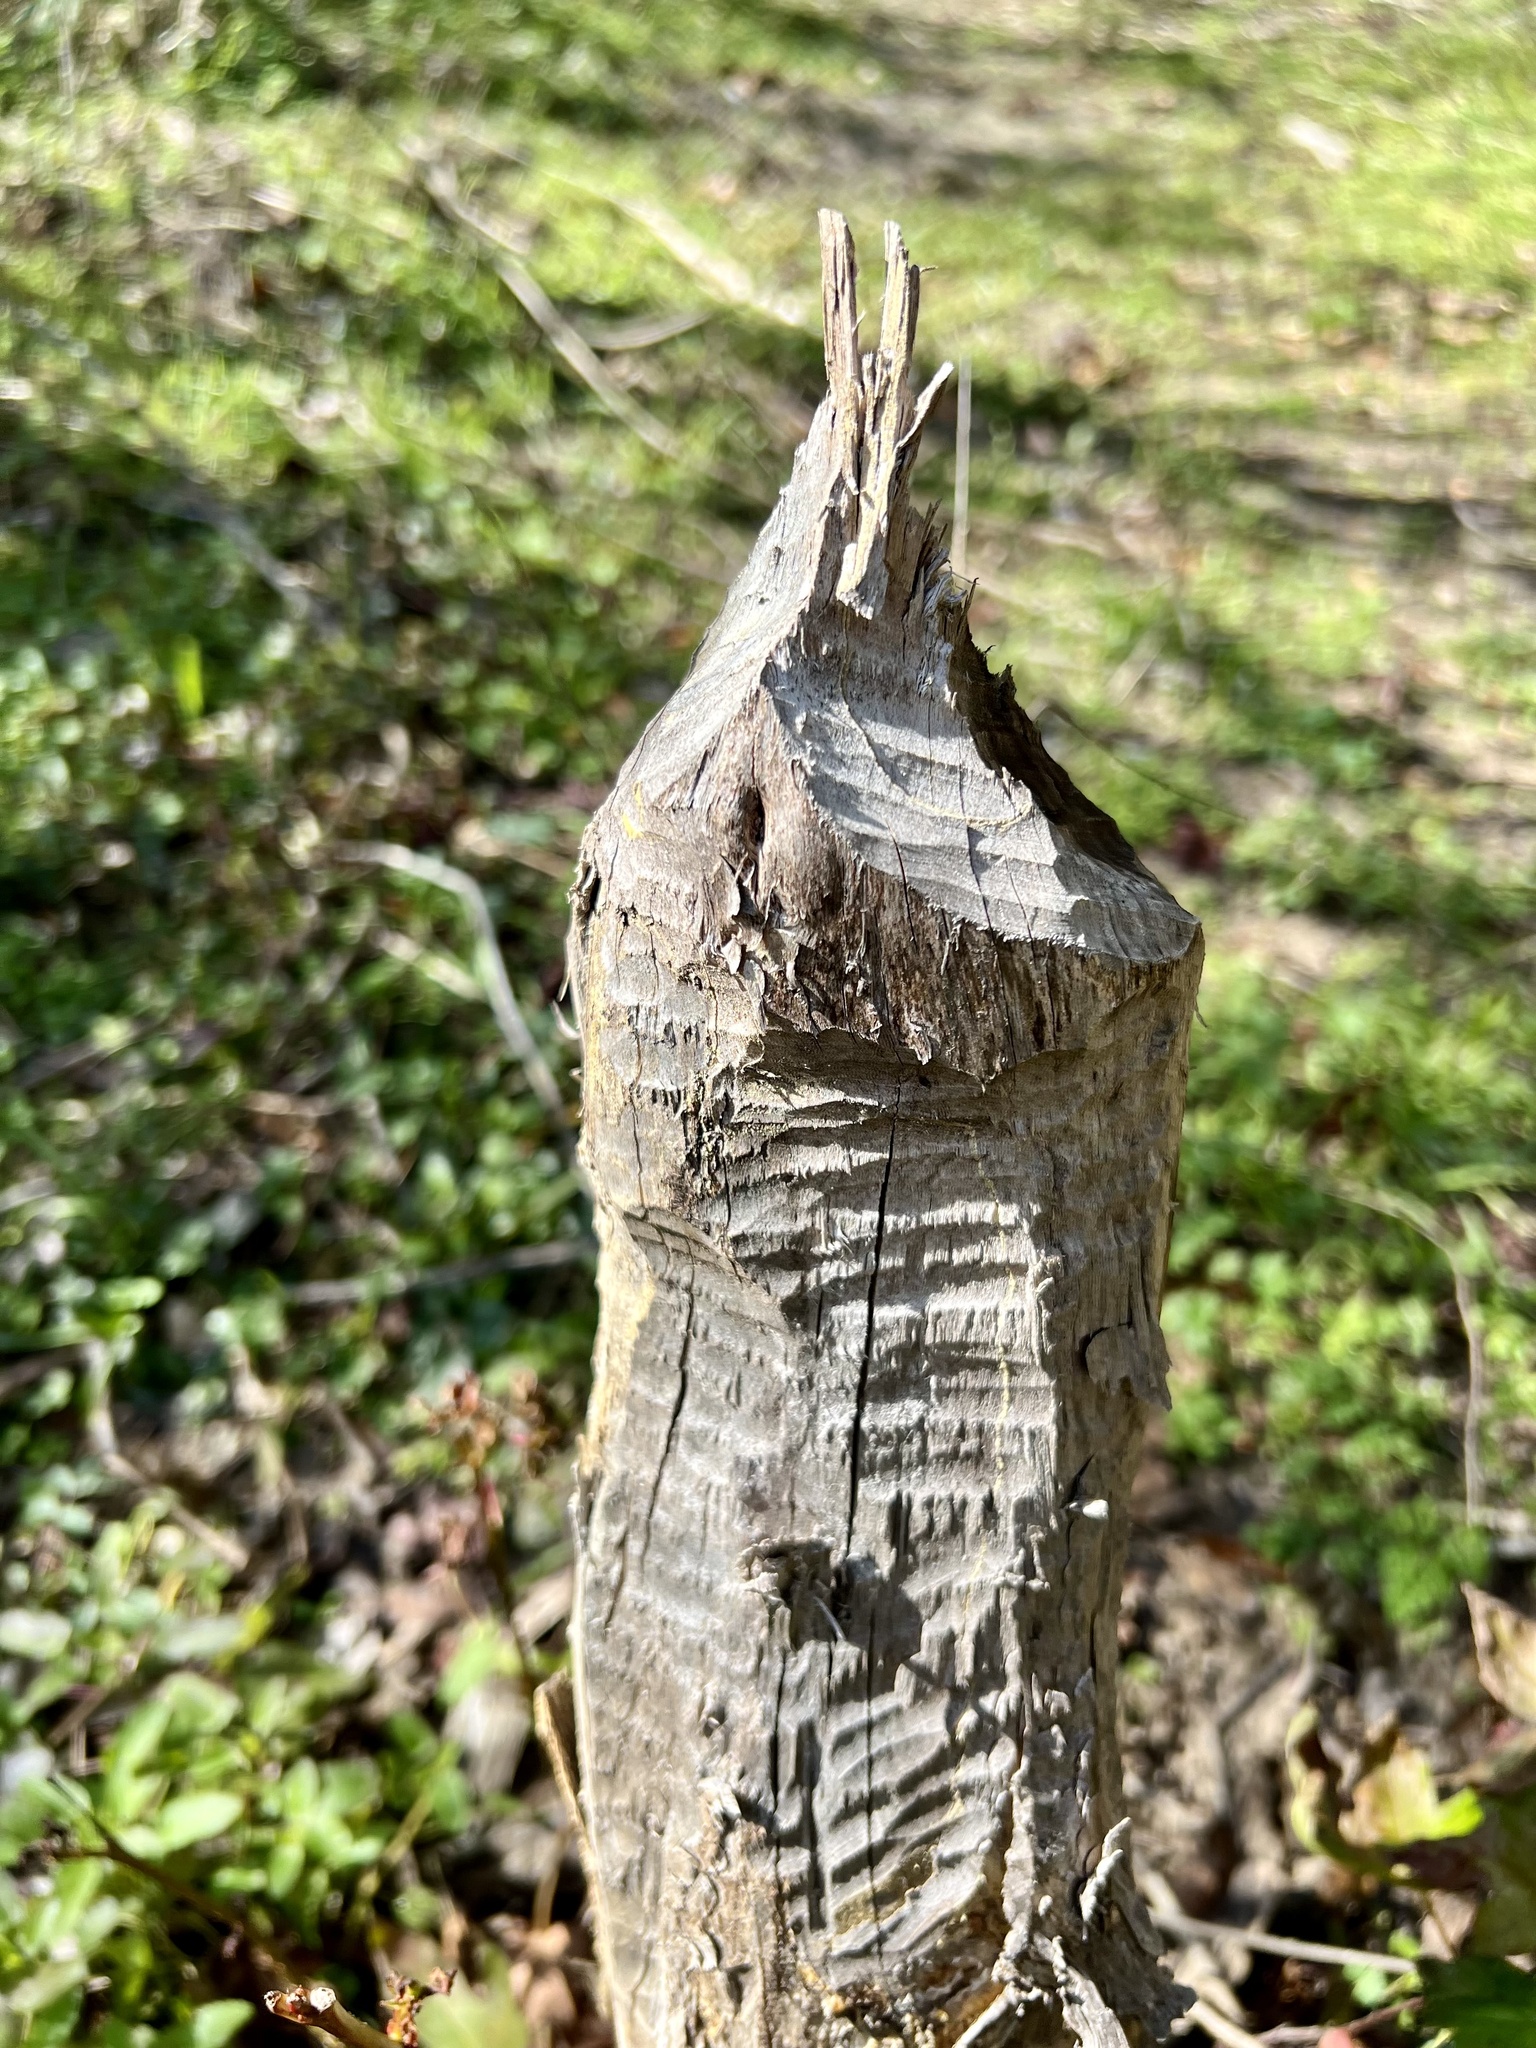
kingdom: Animalia
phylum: Chordata
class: Mammalia
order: Rodentia
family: Castoridae
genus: Castor
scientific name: Castor canadensis
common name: American beaver
